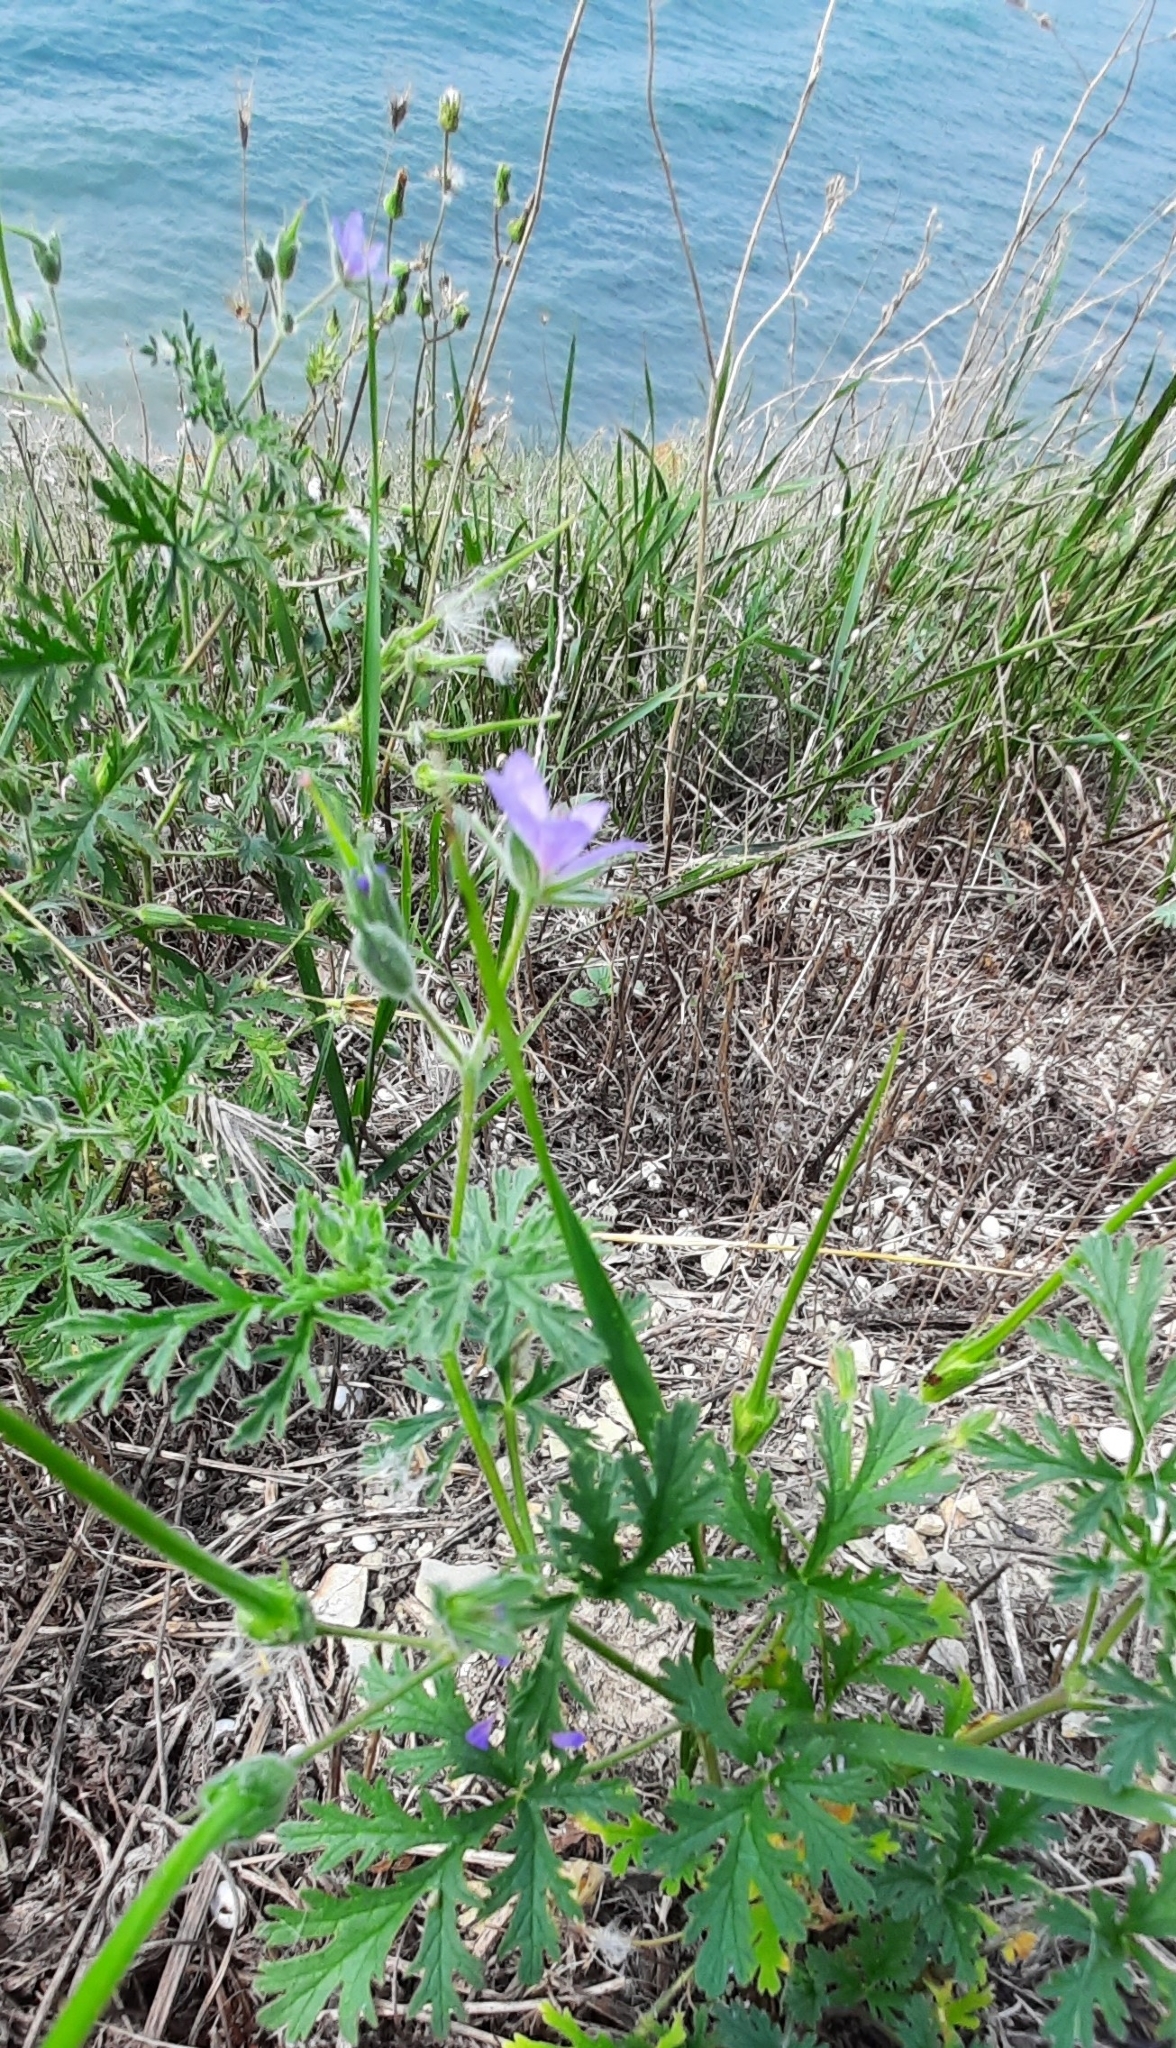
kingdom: Plantae
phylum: Tracheophyta
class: Magnoliopsida
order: Geraniales
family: Geraniaceae
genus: Erodium
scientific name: Erodium ciconium
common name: Common stork's bill
